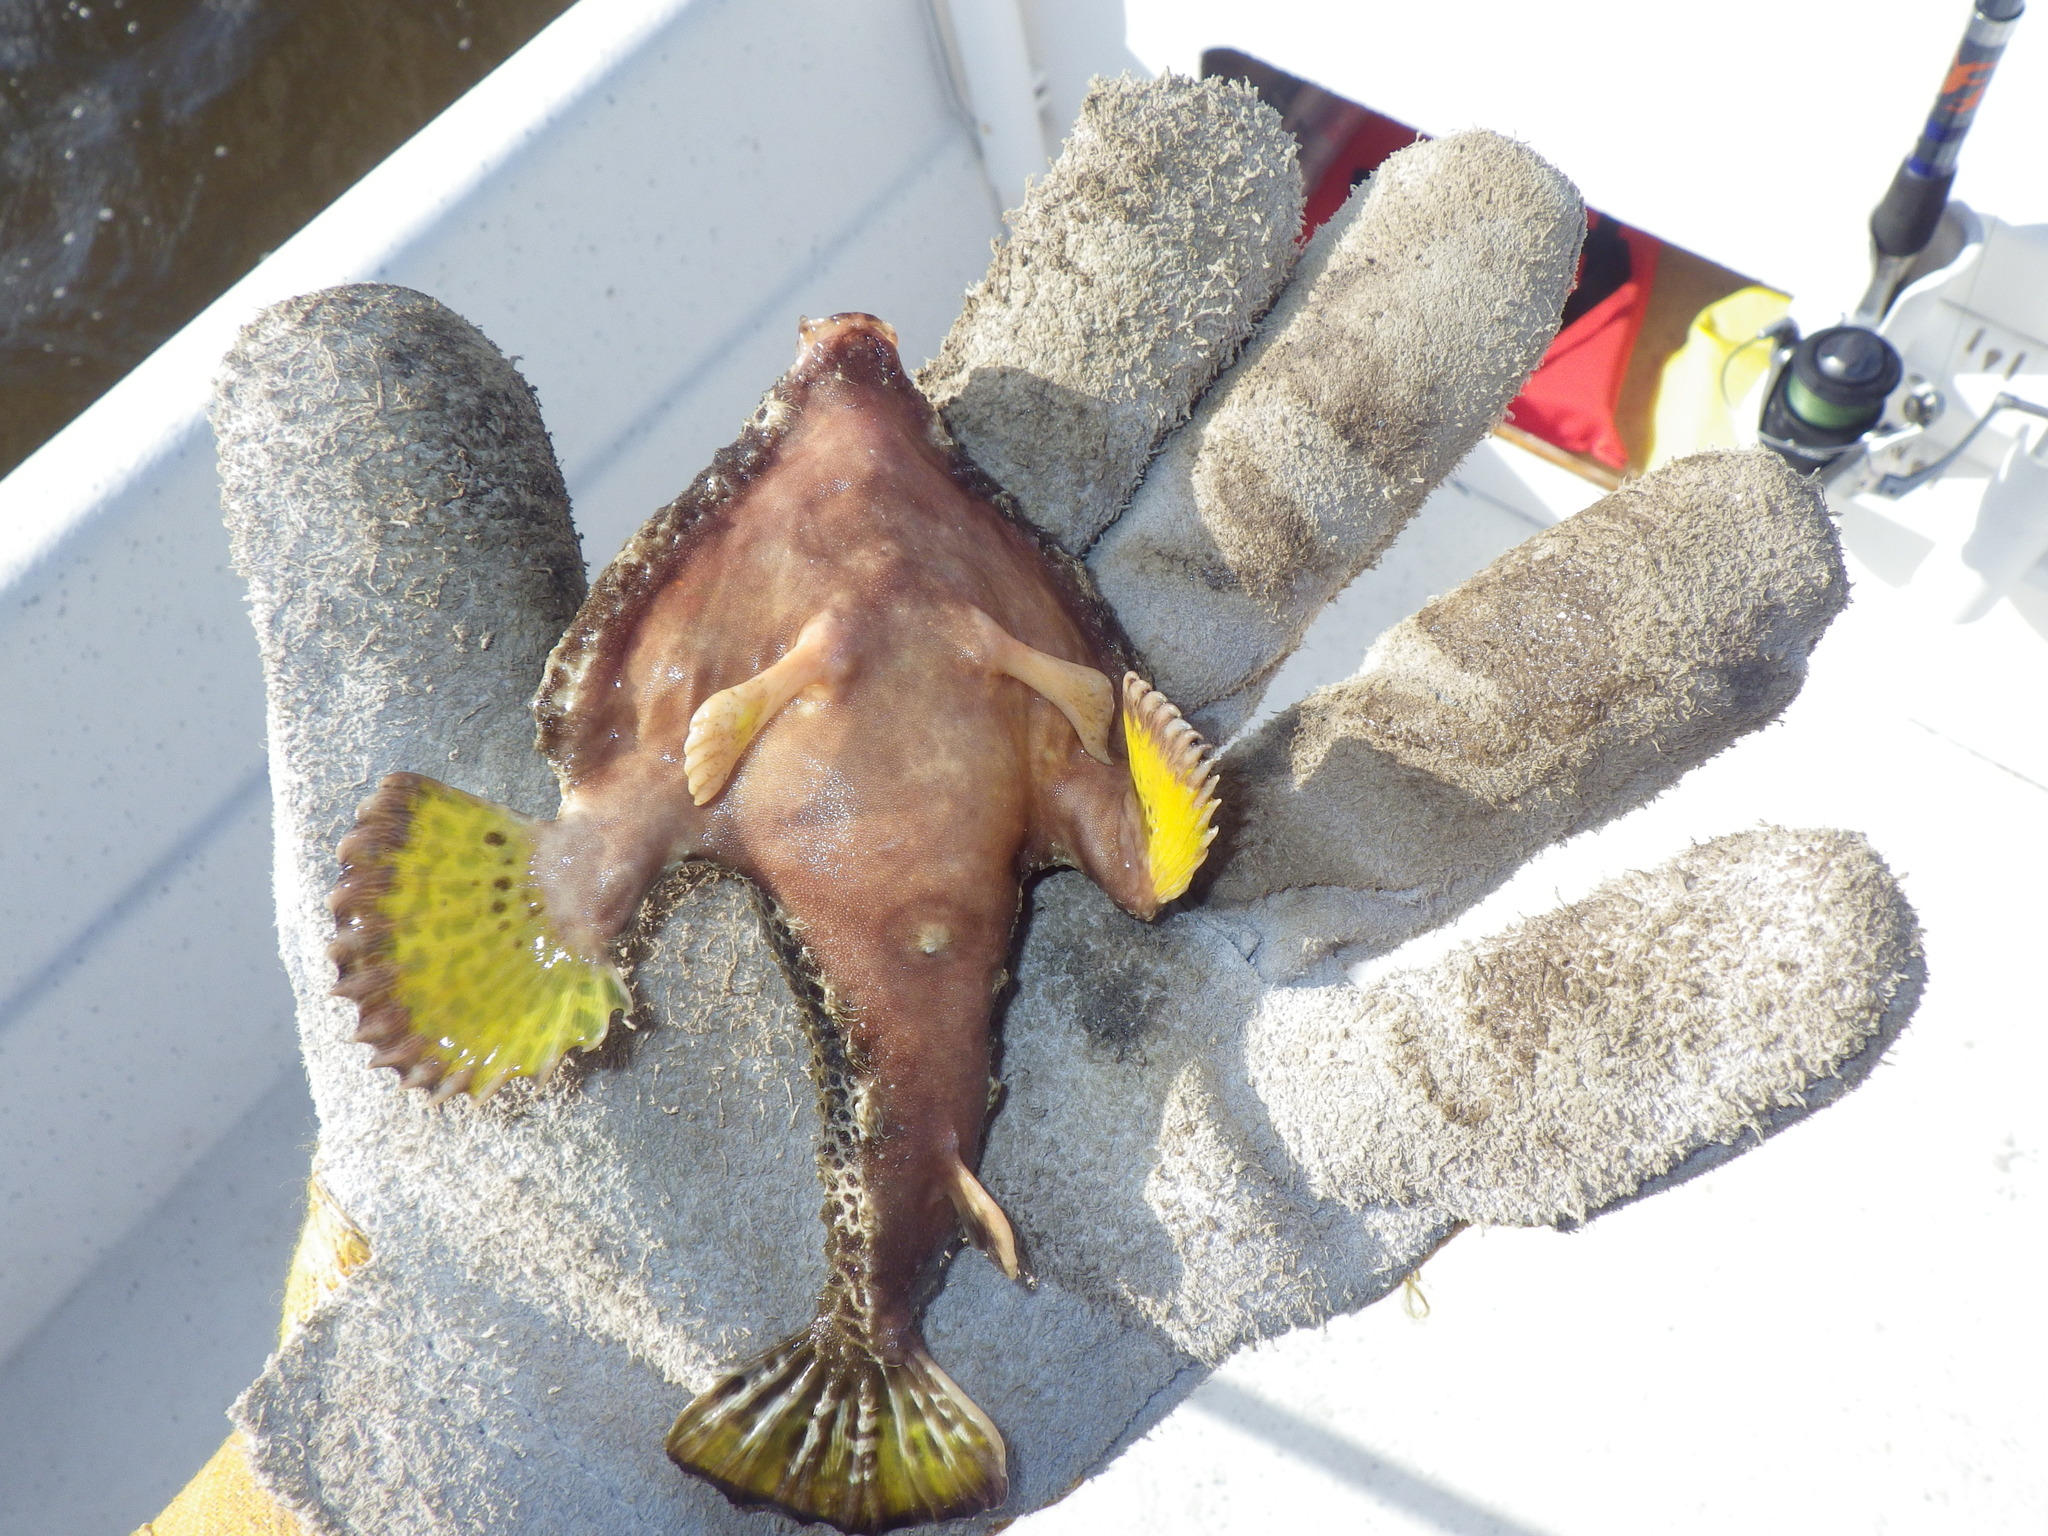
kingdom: Animalia
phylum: Chordata
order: Lophiiformes
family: Ogcocephalidae
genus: Ogcocephalus
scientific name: Ogcocephalus cubifrons
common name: Polka-dot batfish
